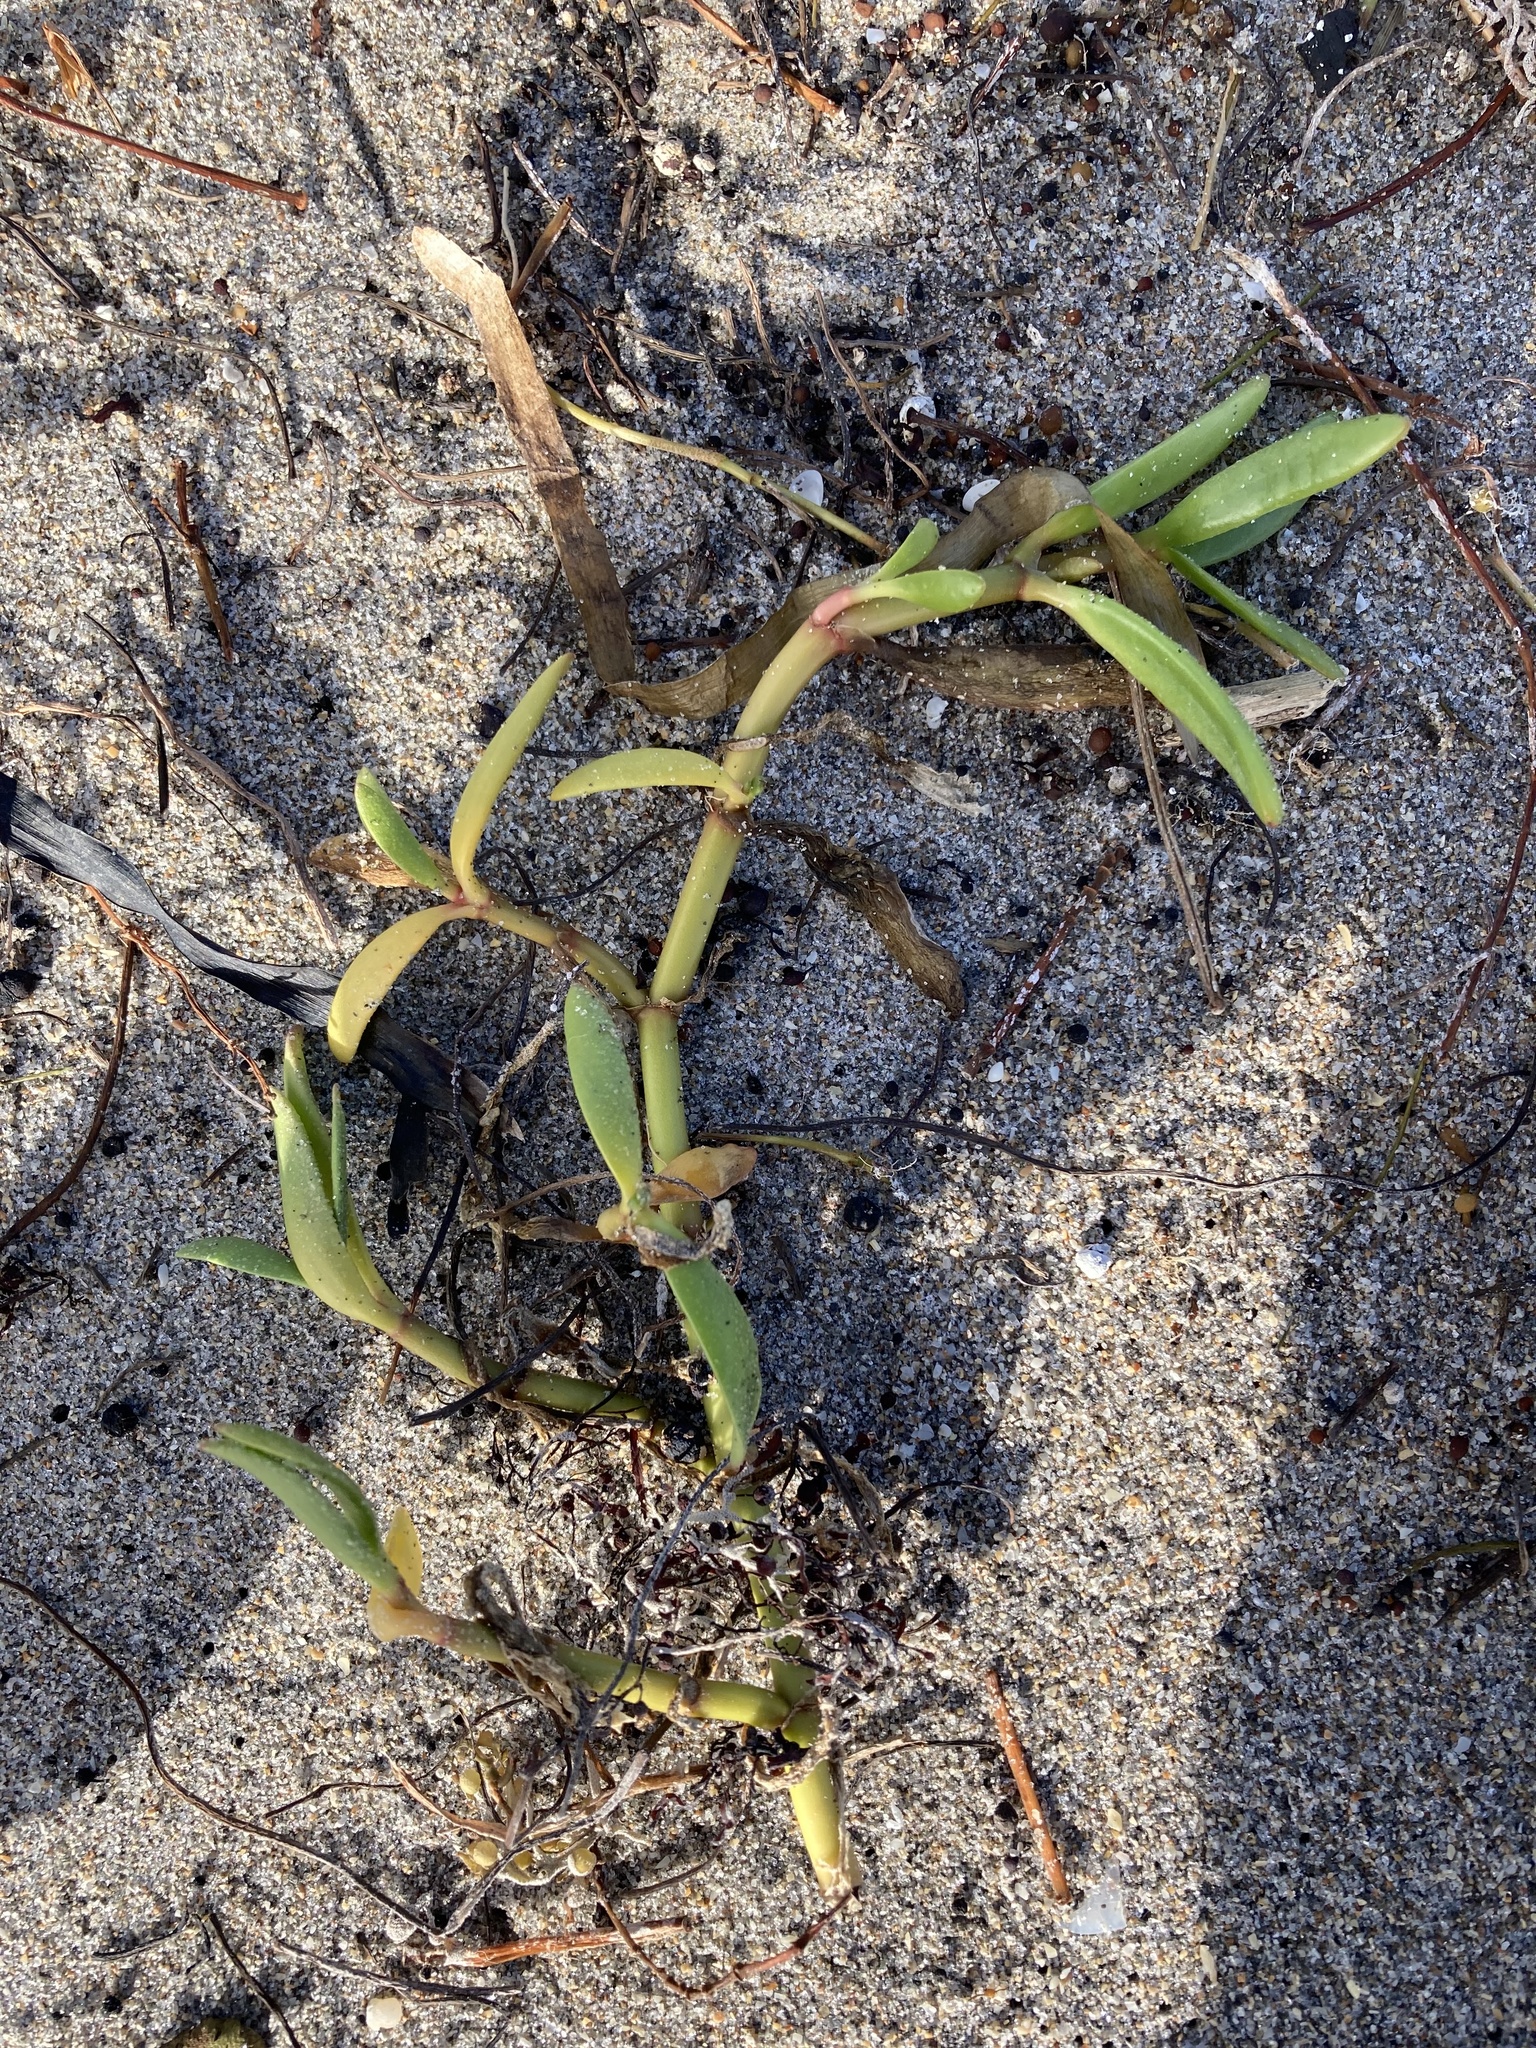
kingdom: Plantae
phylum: Tracheophyta
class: Magnoliopsida
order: Caryophyllales
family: Aizoaceae
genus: Sesuvium
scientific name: Sesuvium portulacastrum
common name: Sea-purslane
